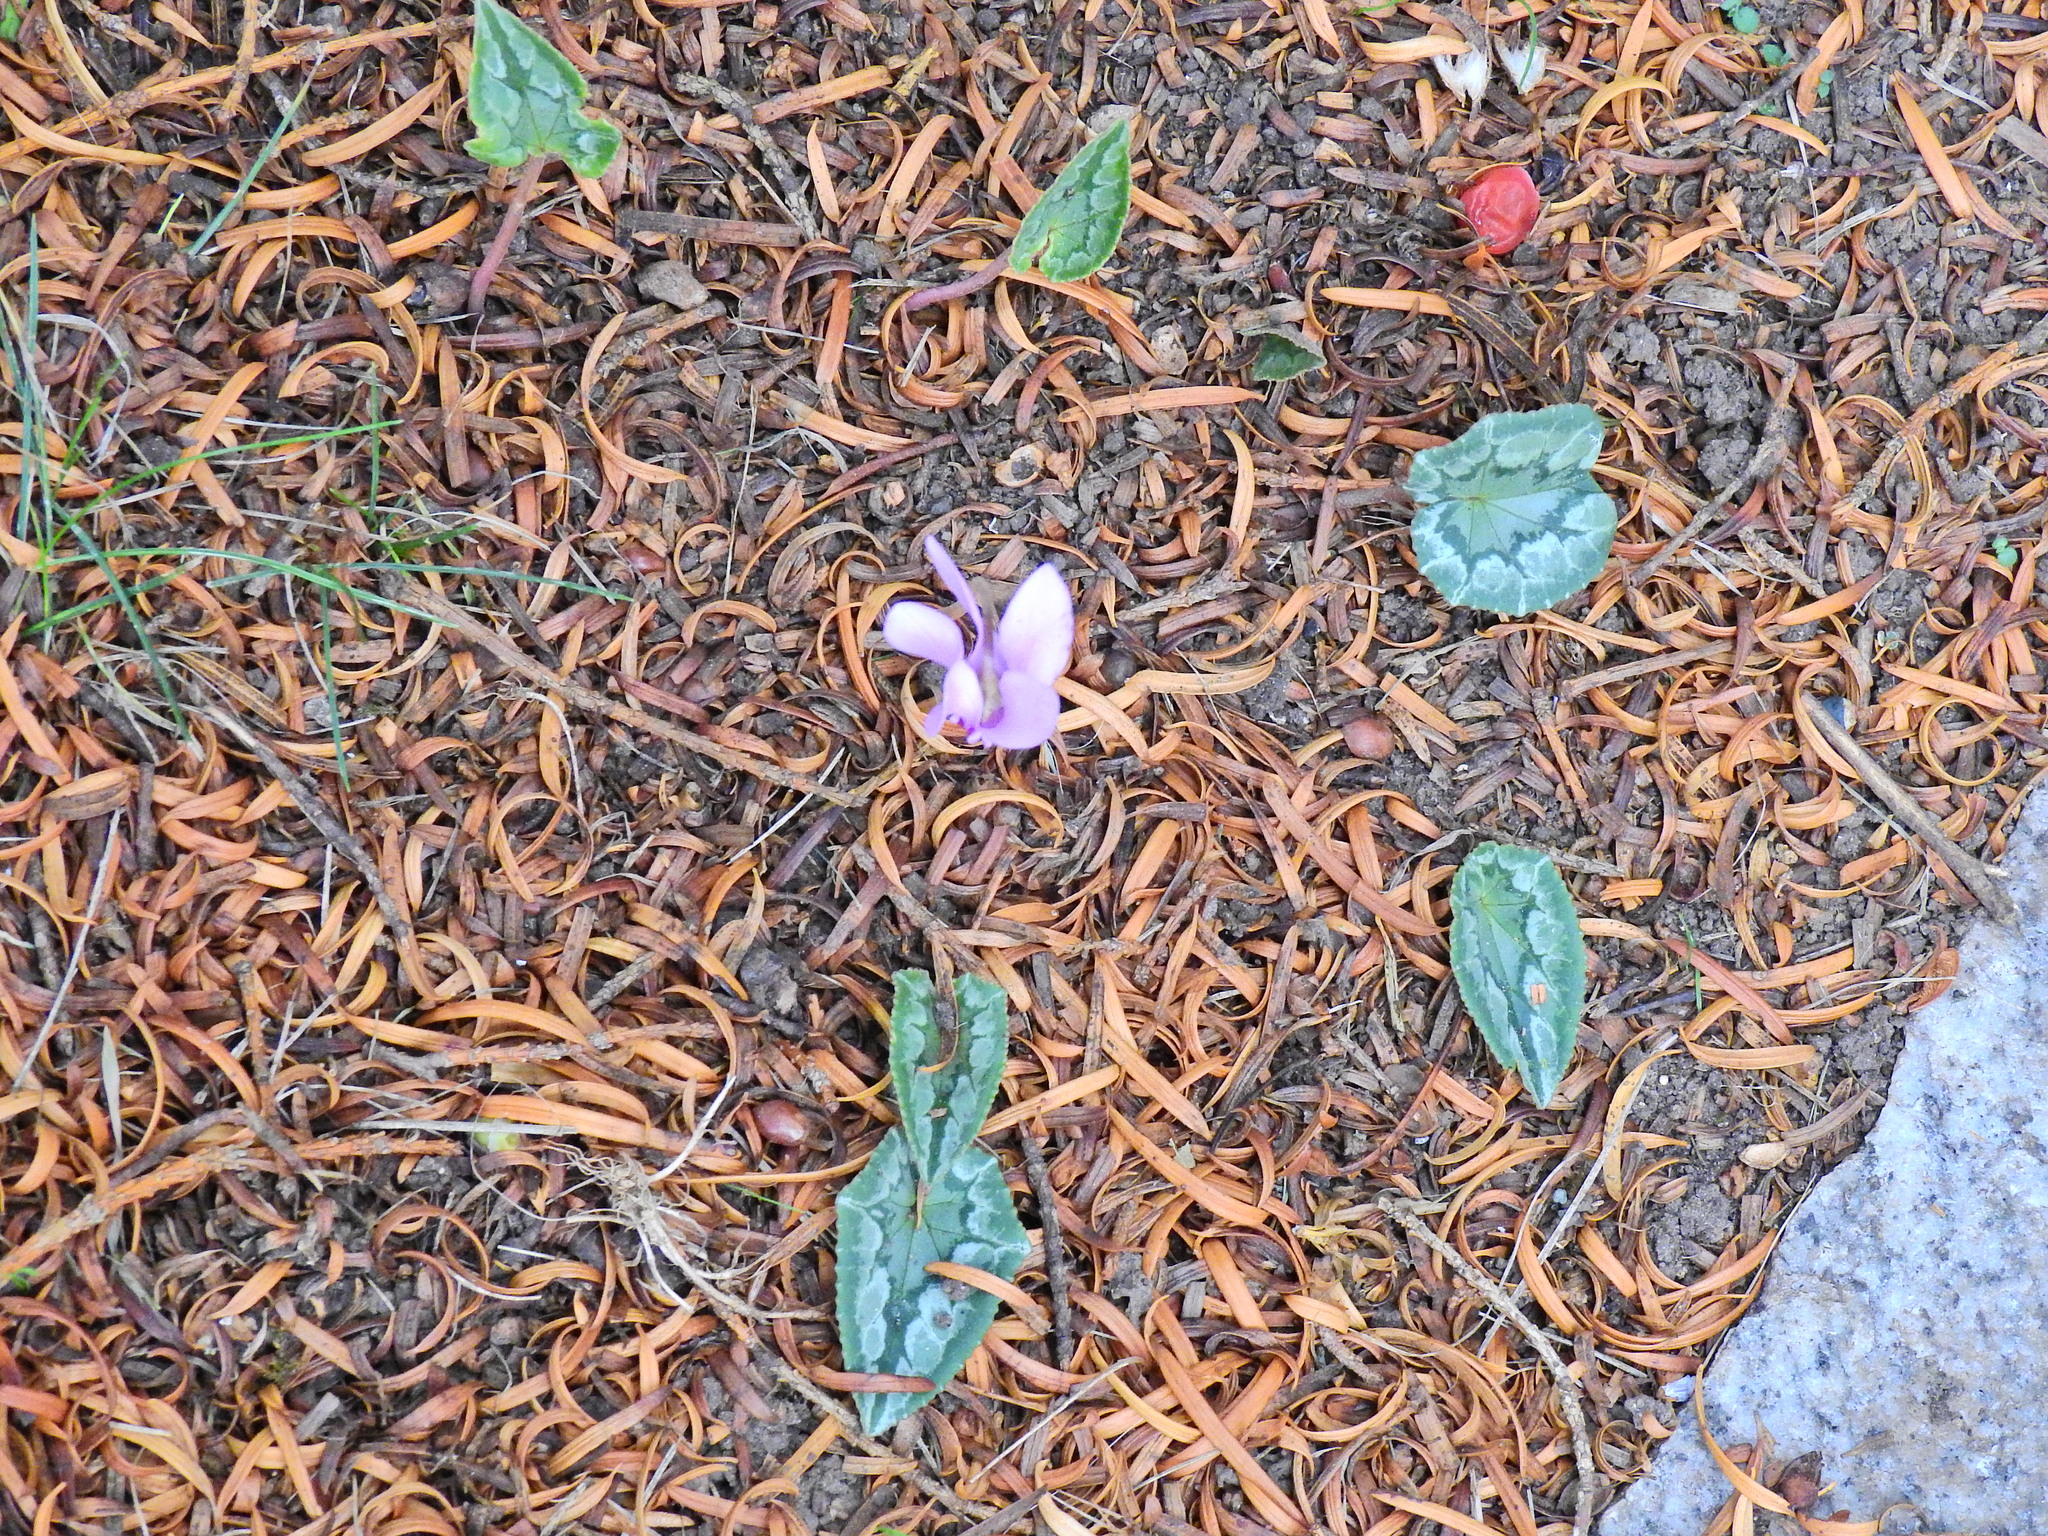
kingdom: Plantae
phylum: Tracheophyta
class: Magnoliopsida
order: Ericales
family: Primulaceae
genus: Cyclamen
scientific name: Cyclamen hederifolium
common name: Sowbread
